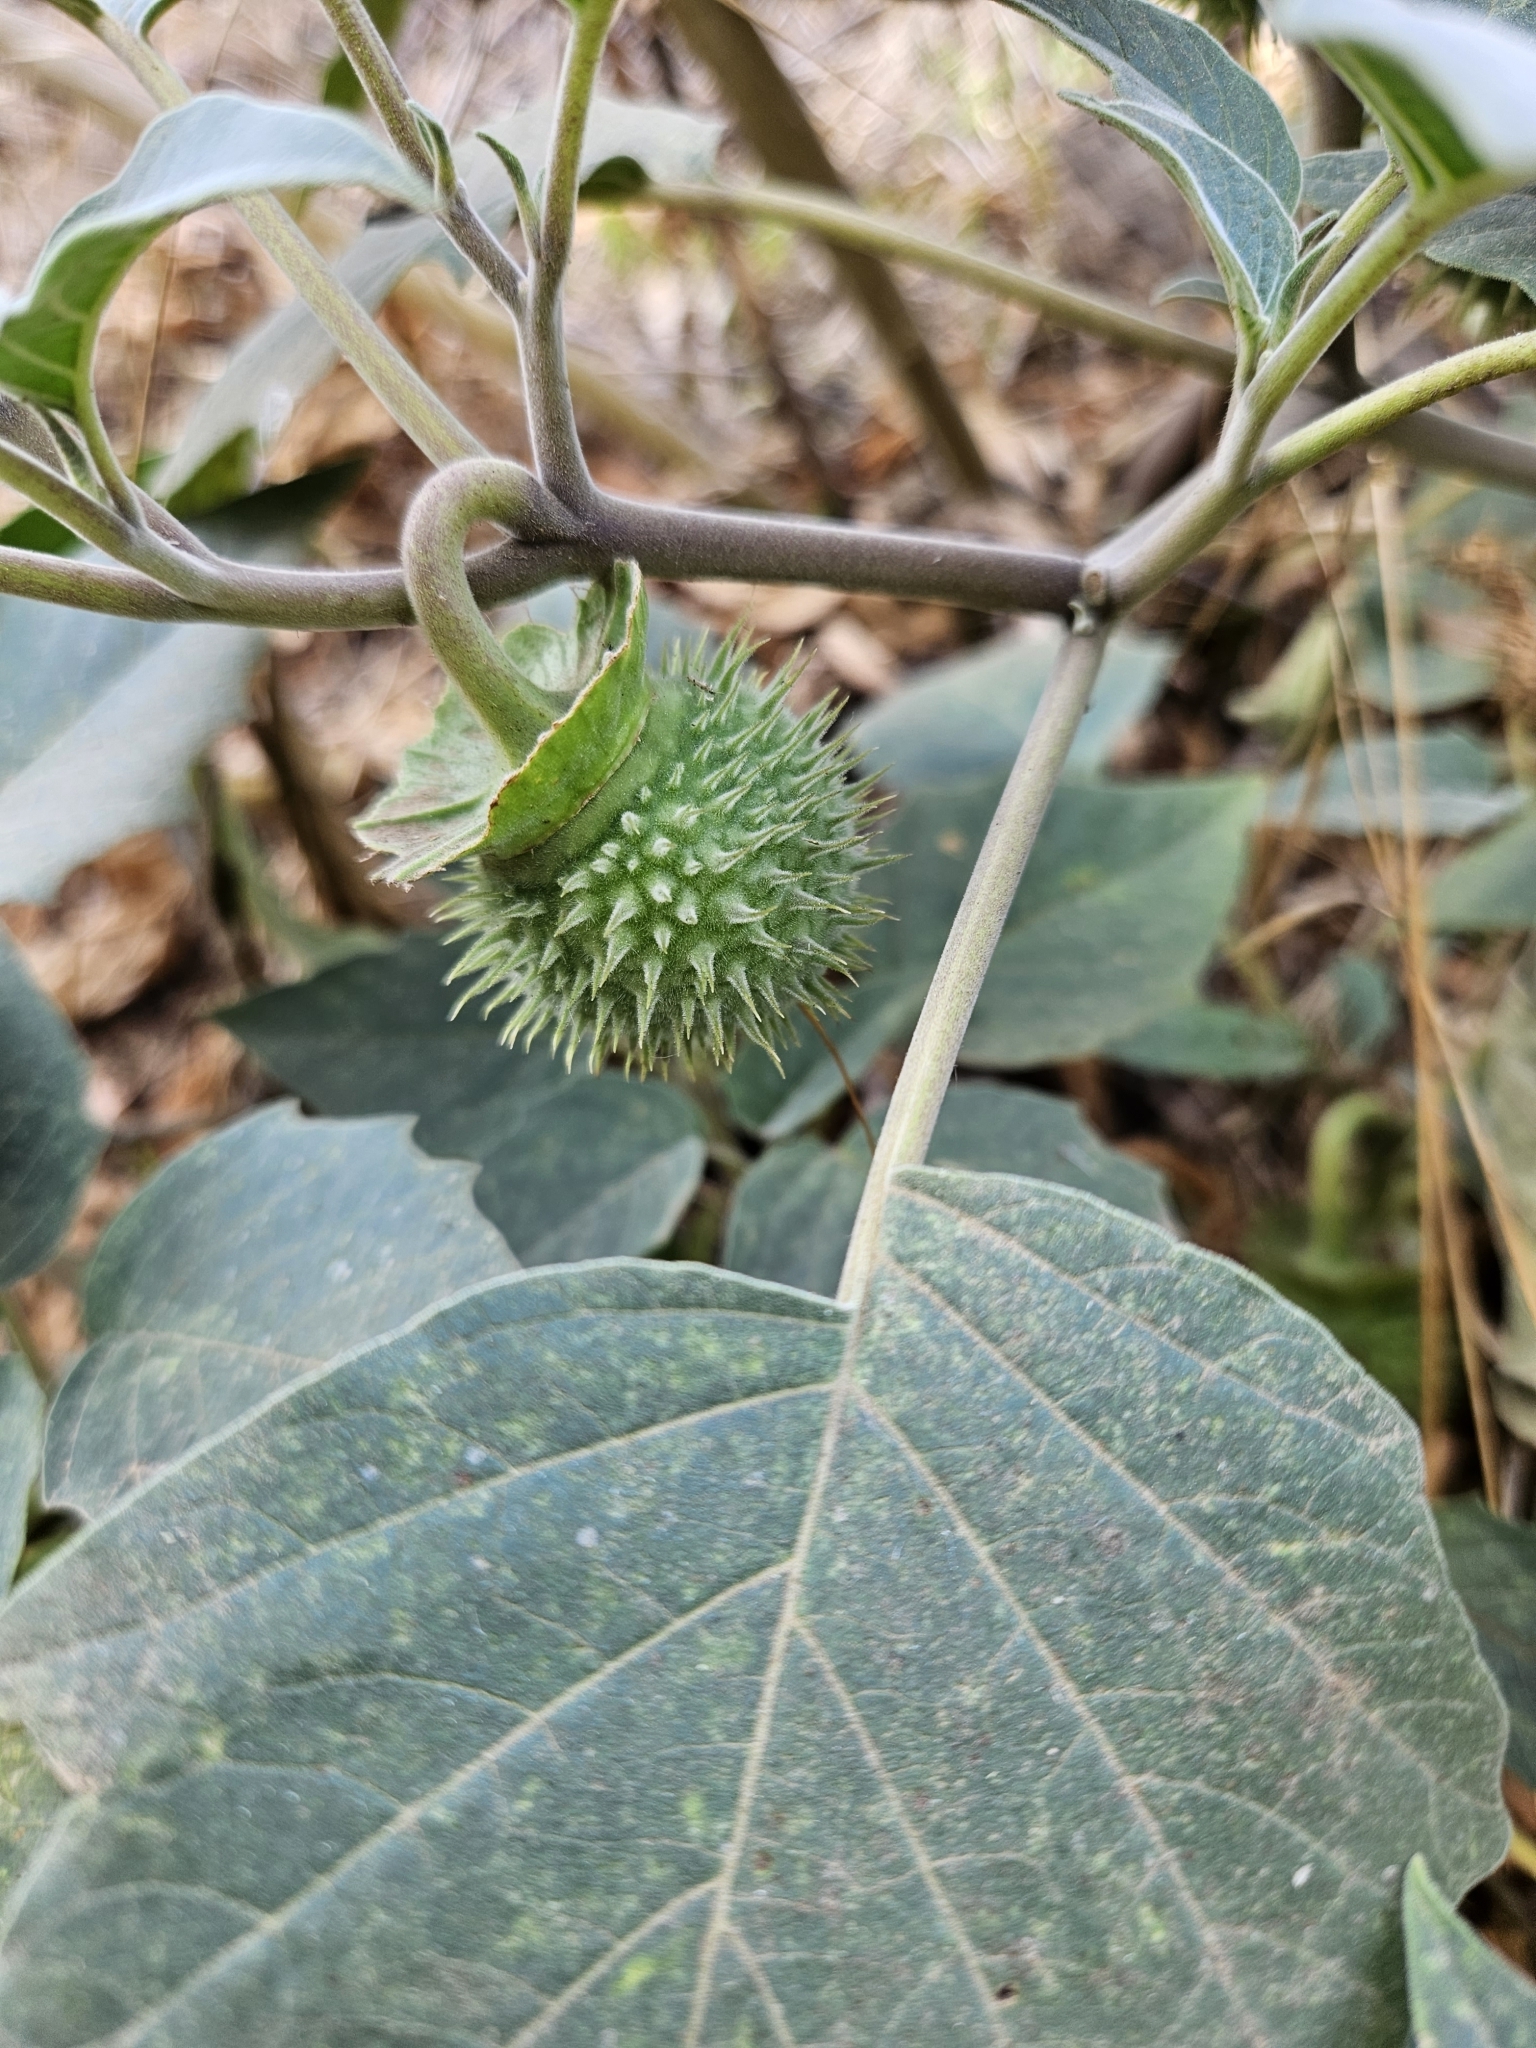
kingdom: Plantae
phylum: Tracheophyta
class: Magnoliopsida
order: Solanales
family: Solanaceae
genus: Datura
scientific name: Datura wrightii
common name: Sacred thorn-apple
